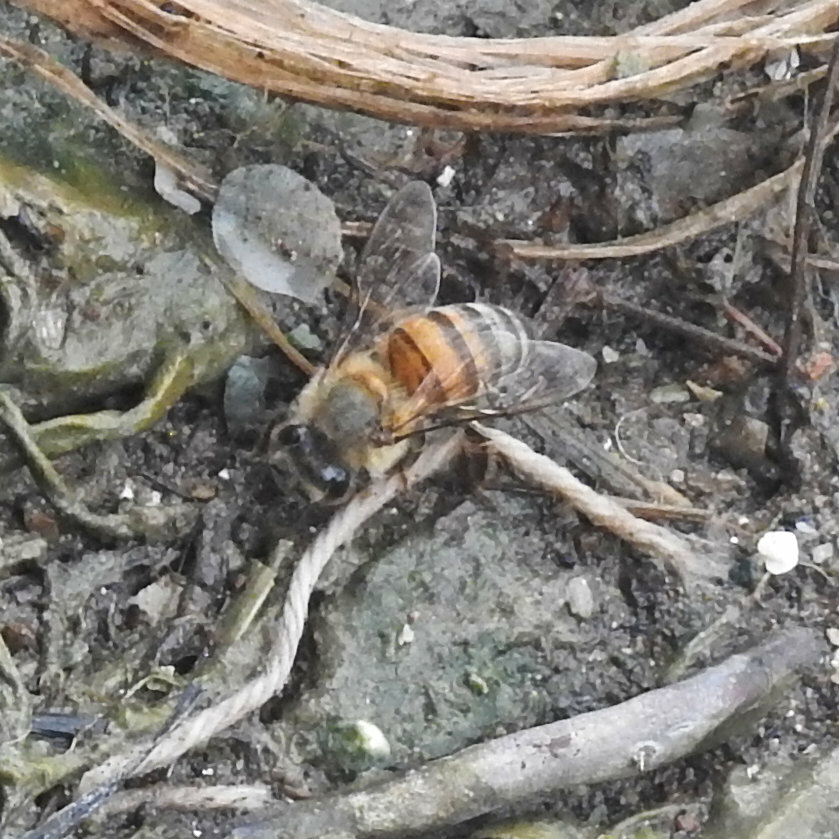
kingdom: Animalia
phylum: Arthropoda
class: Insecta
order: Hymenoptera
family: Apidae
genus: Apis
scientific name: Apis mellifera
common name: Honey bee
